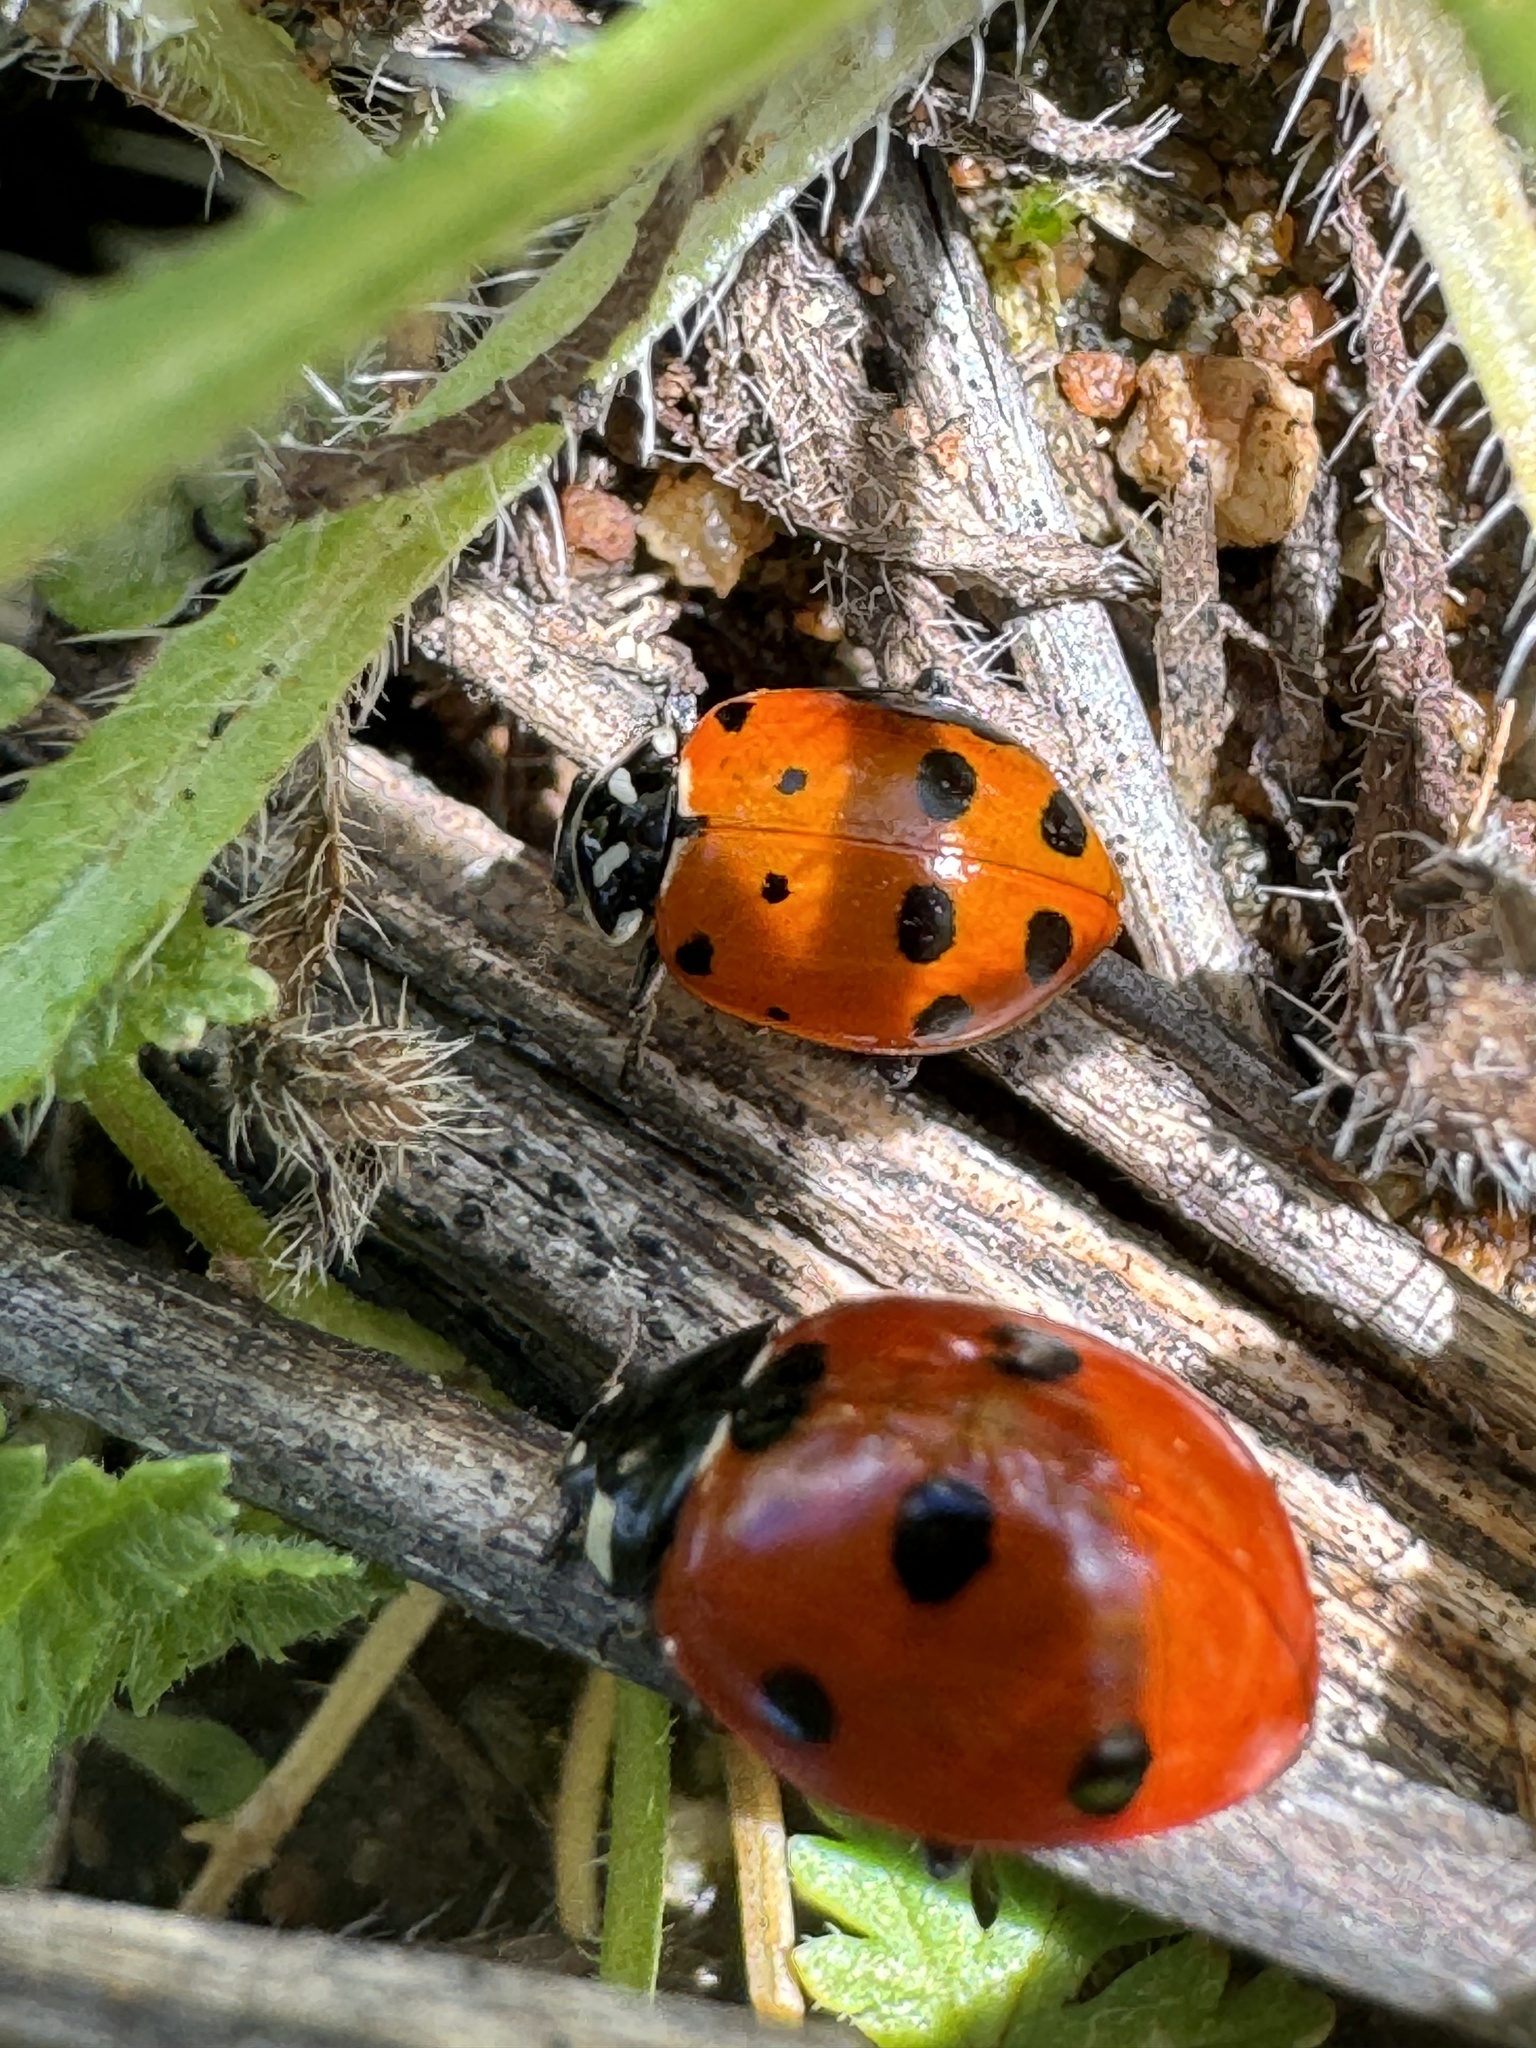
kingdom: Animalia
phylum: Arthropoda
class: Insecta
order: Coleoptera
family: Coccinellidae
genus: Hippodamia
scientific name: Hippodamia convergens
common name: Convergent lady beetle
